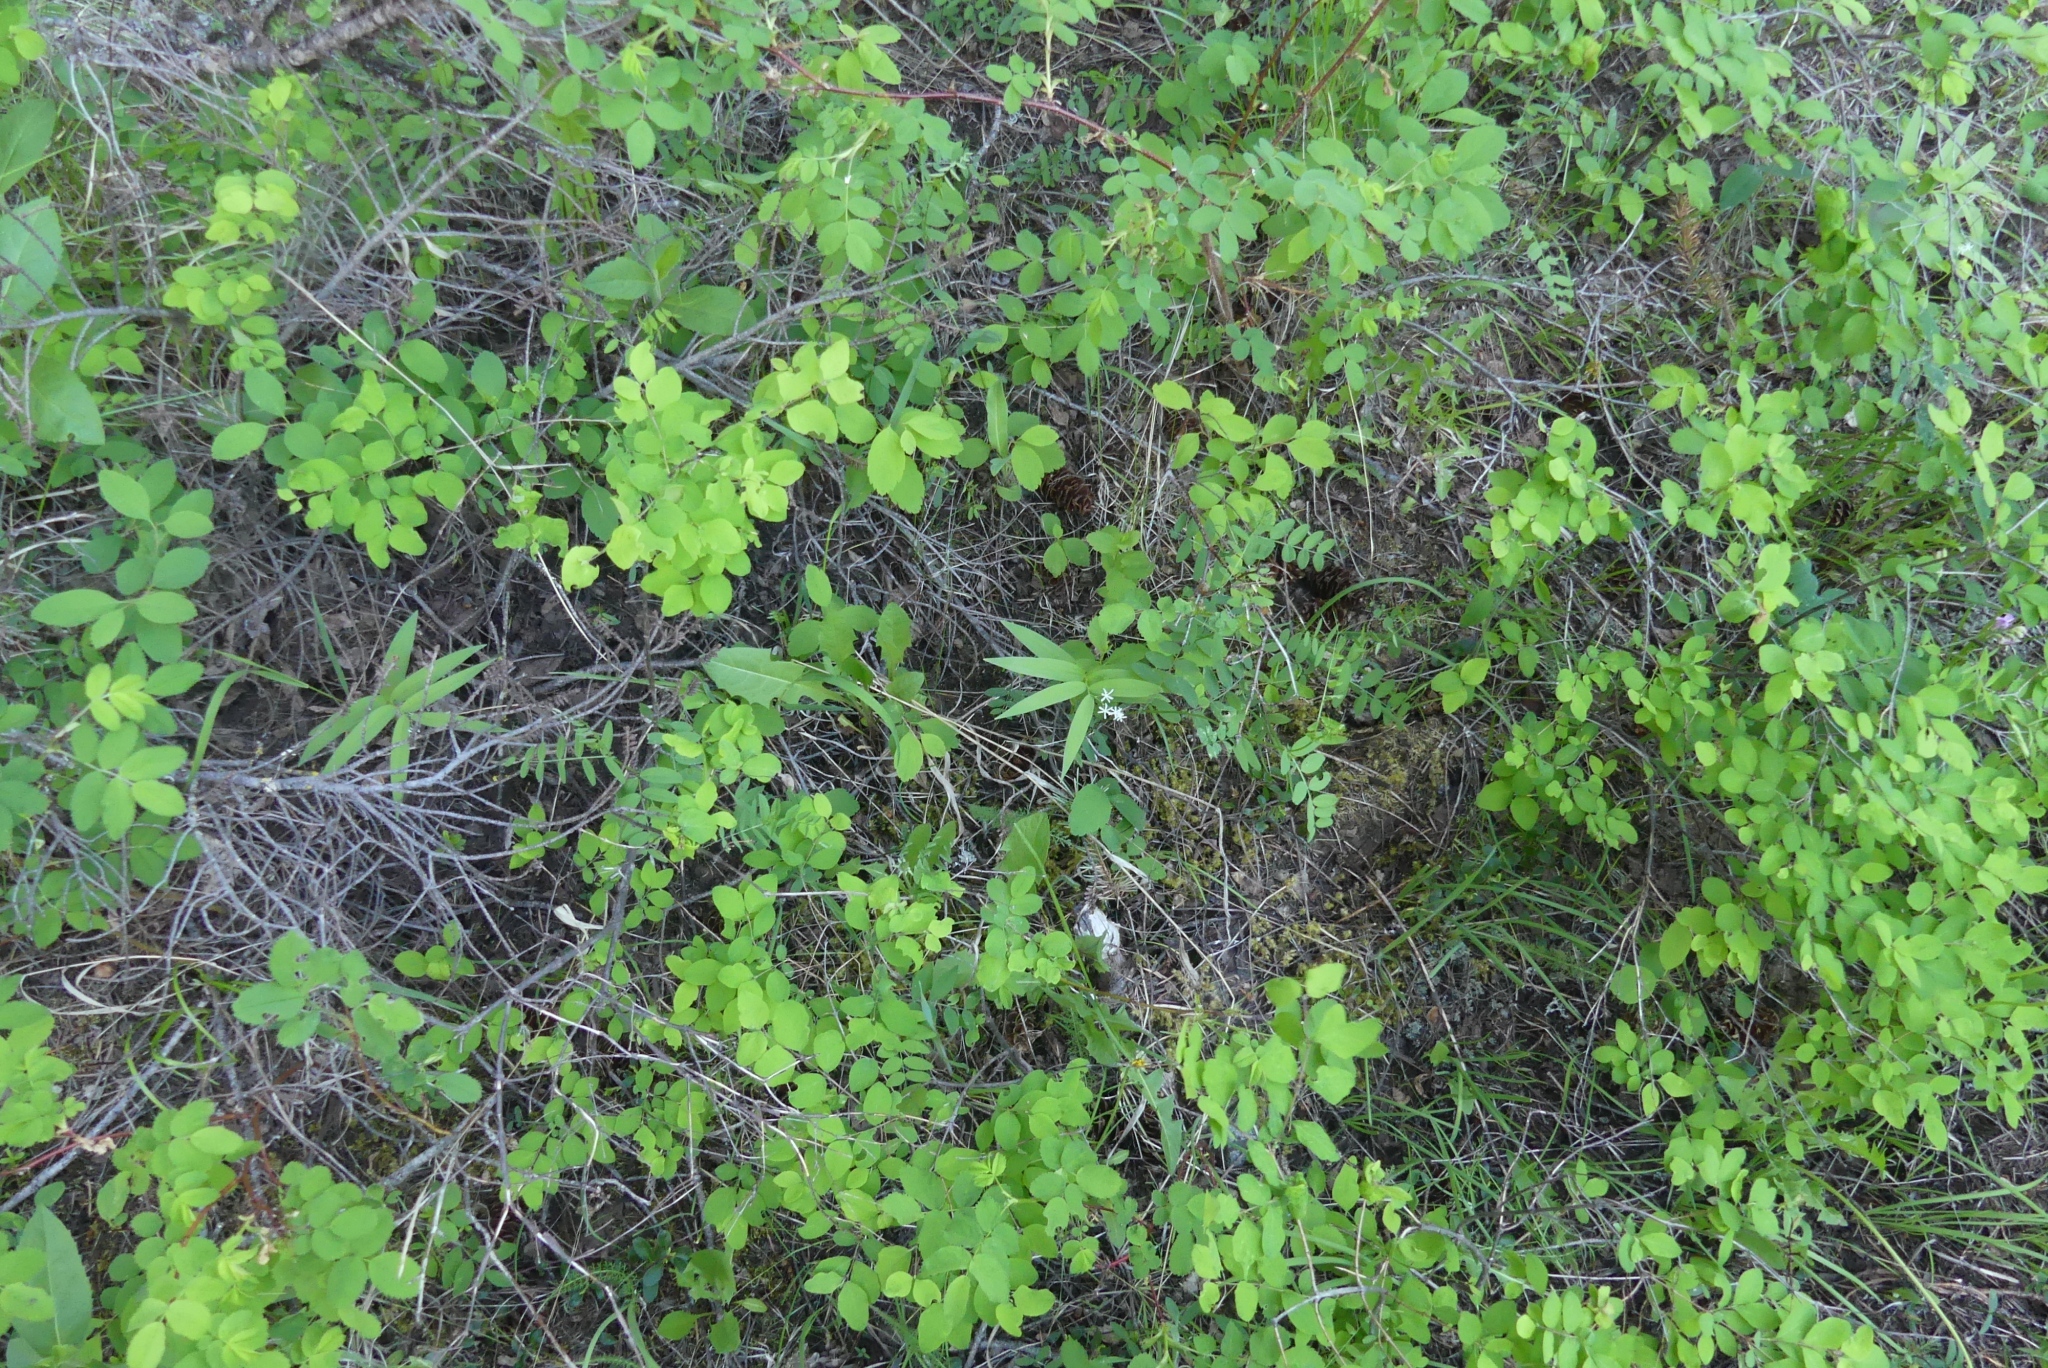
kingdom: Plantae
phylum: Tracheophyta
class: Liliopsida
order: Asparagales
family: Asparagaceae
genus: Maianthemum
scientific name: Maianthemum stellatum
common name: Little false solomon's seal
